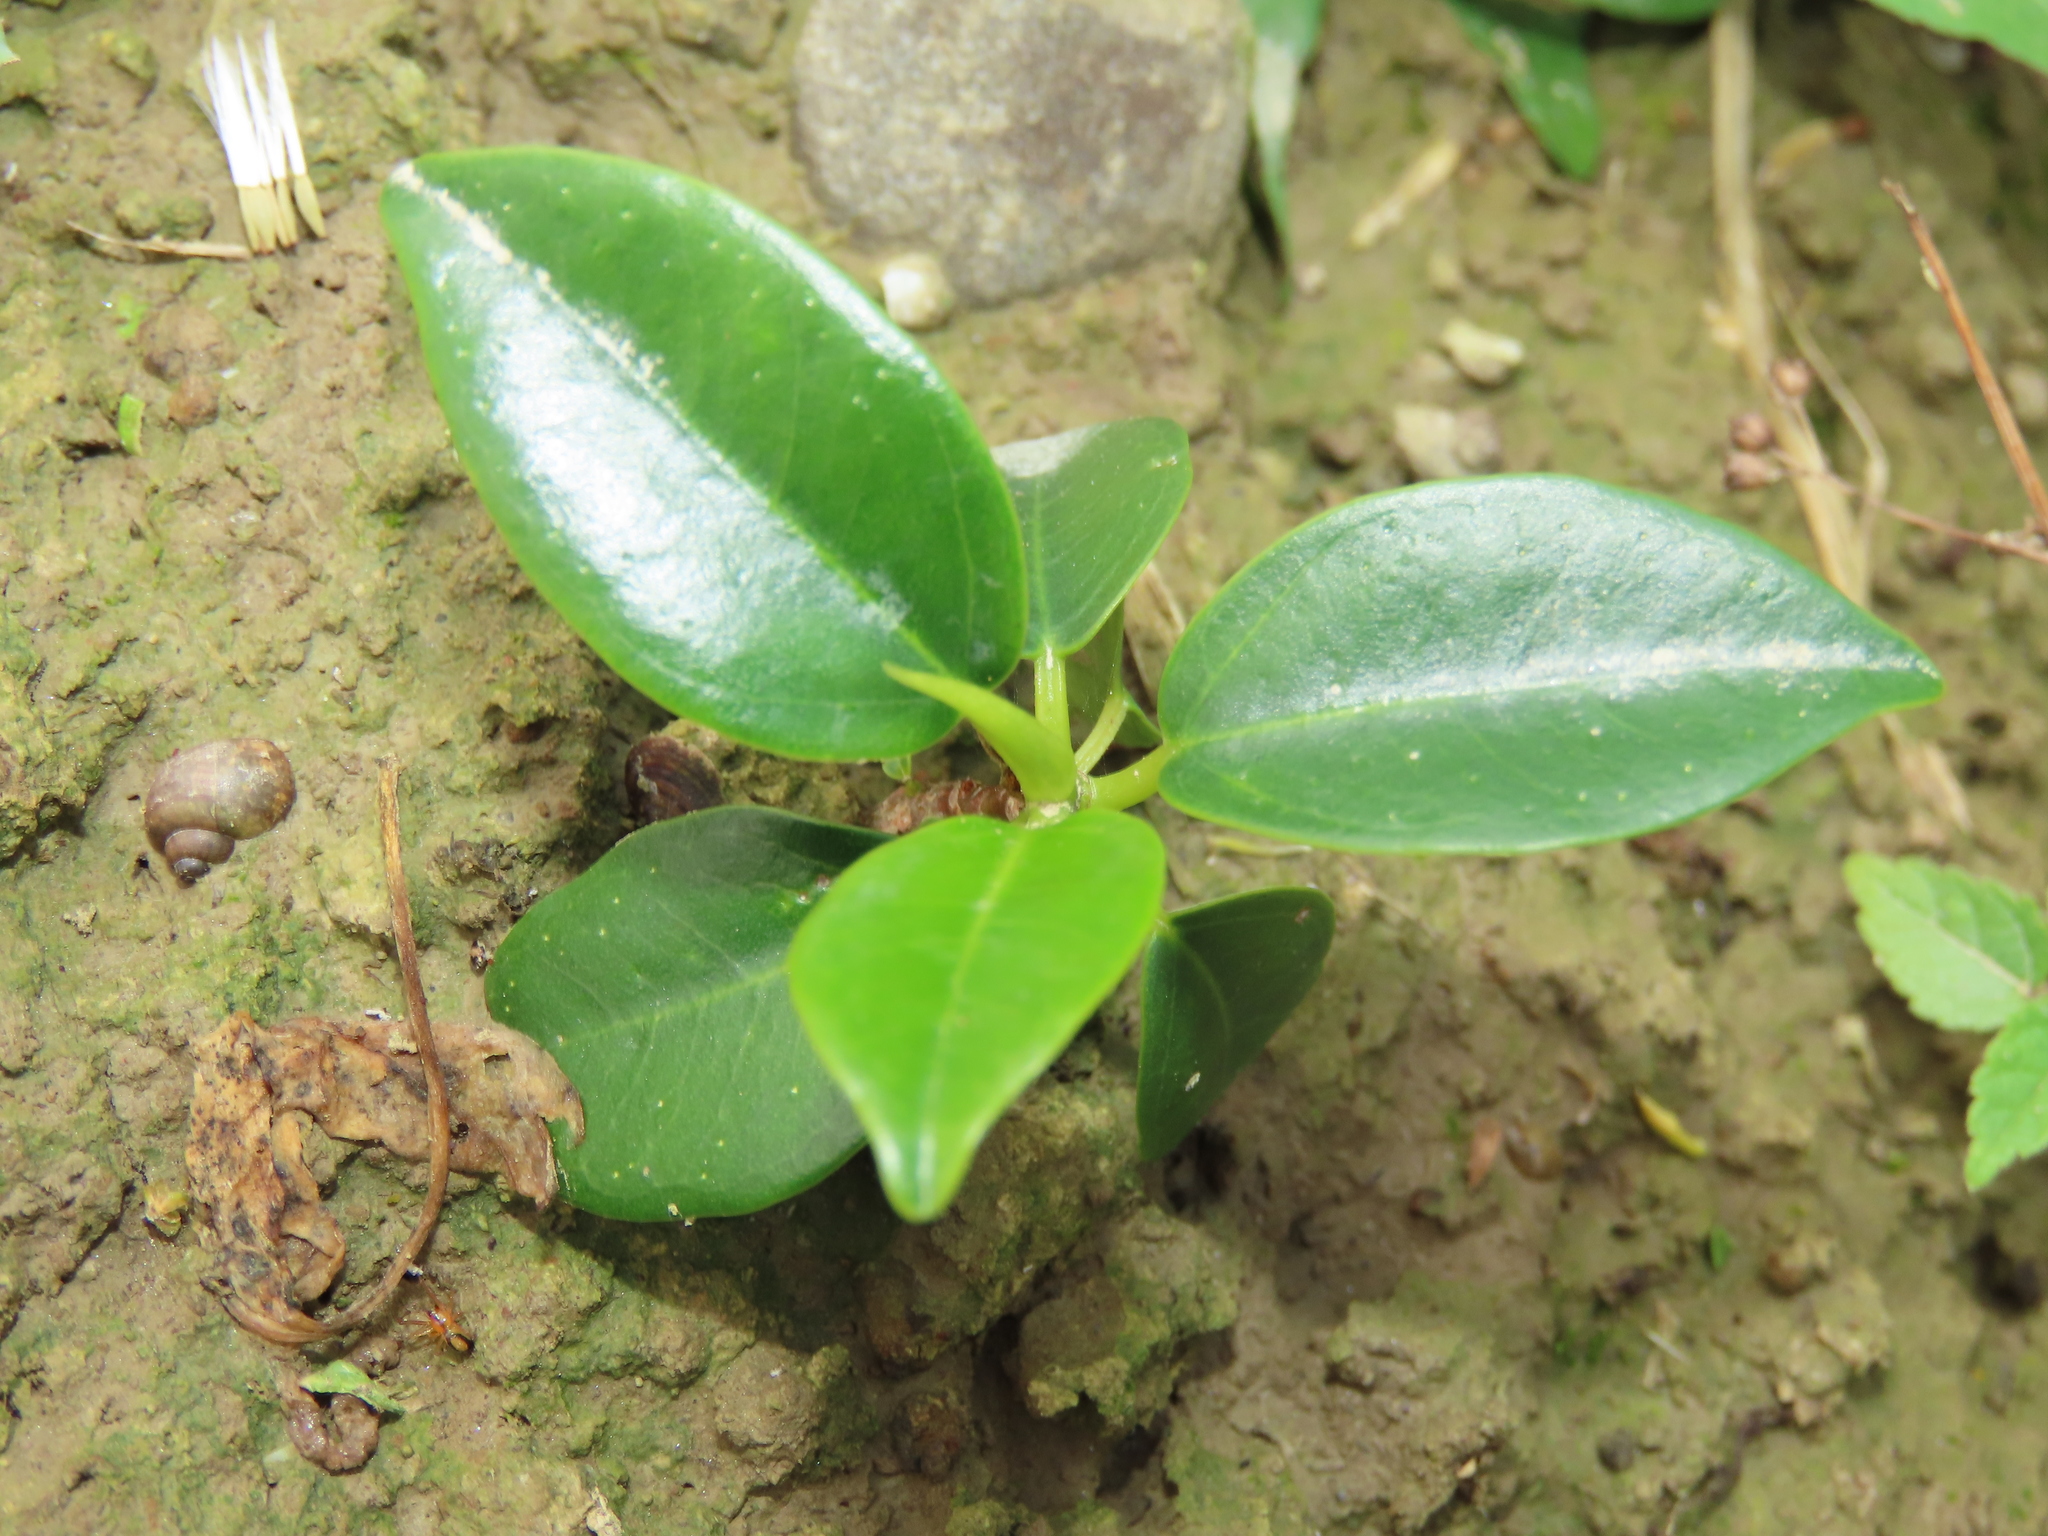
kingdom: Plantae
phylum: Tracheophyta
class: Magnoliopsida
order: Rosales
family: Moraceae
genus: Ficus
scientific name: Ficus microcarpa
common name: Chinese banyan
